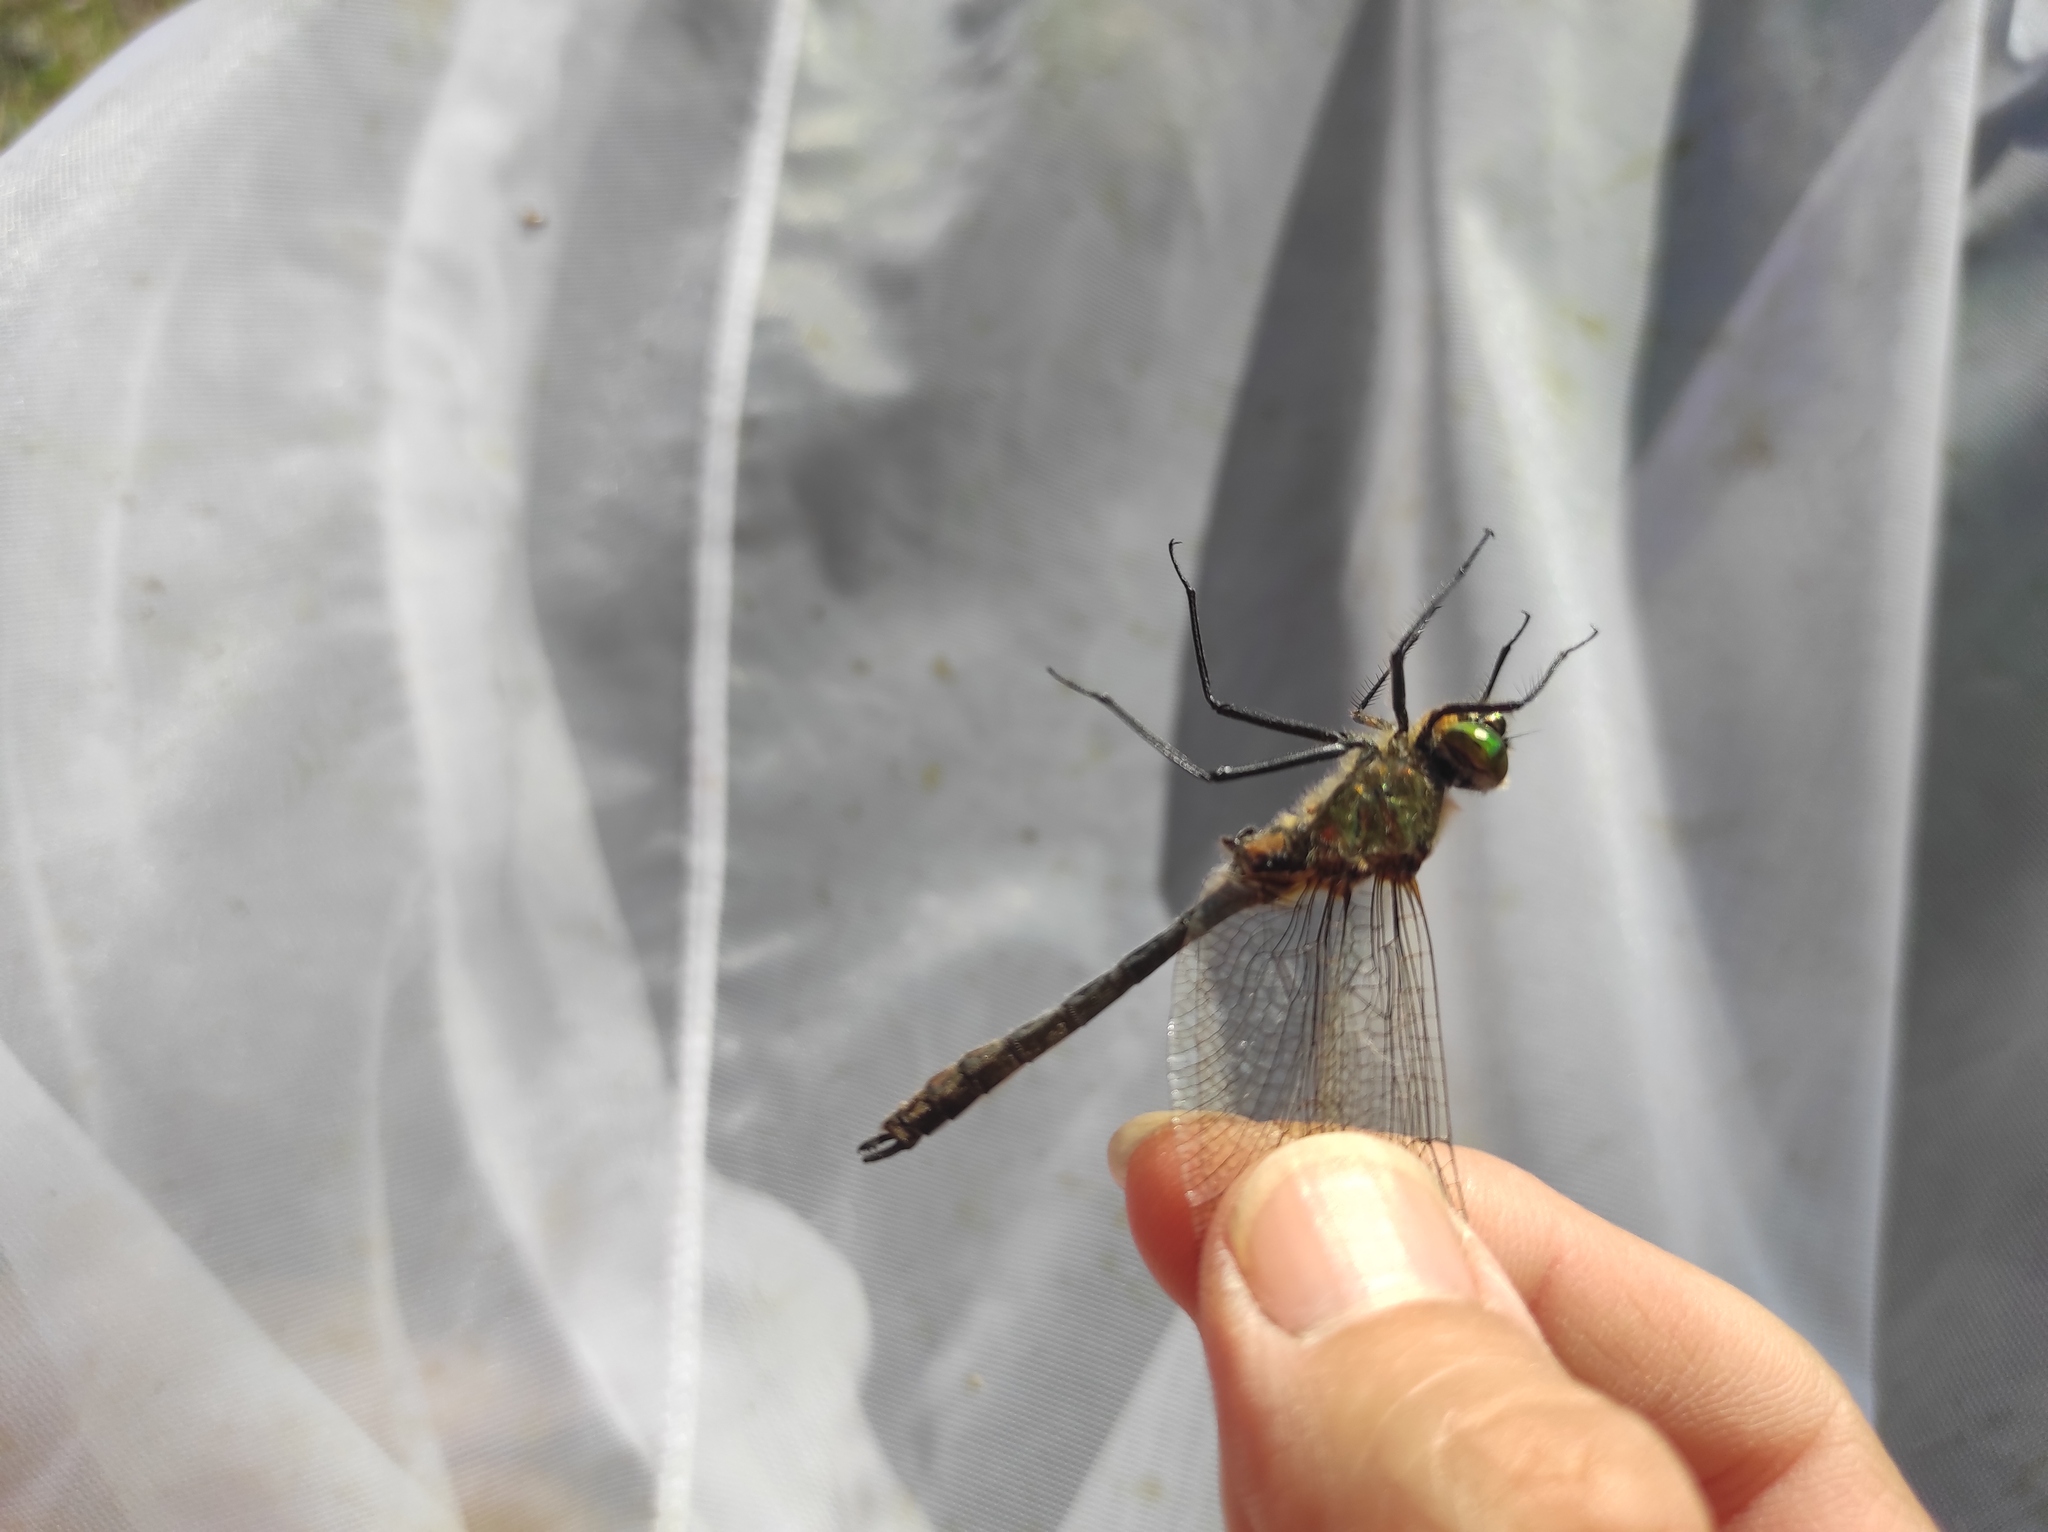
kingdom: Animalia
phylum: Arthropoda
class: Insecta
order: Odonata
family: Corduliidae
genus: Cordulia
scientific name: Cordulia aenea
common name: Downy emerald
